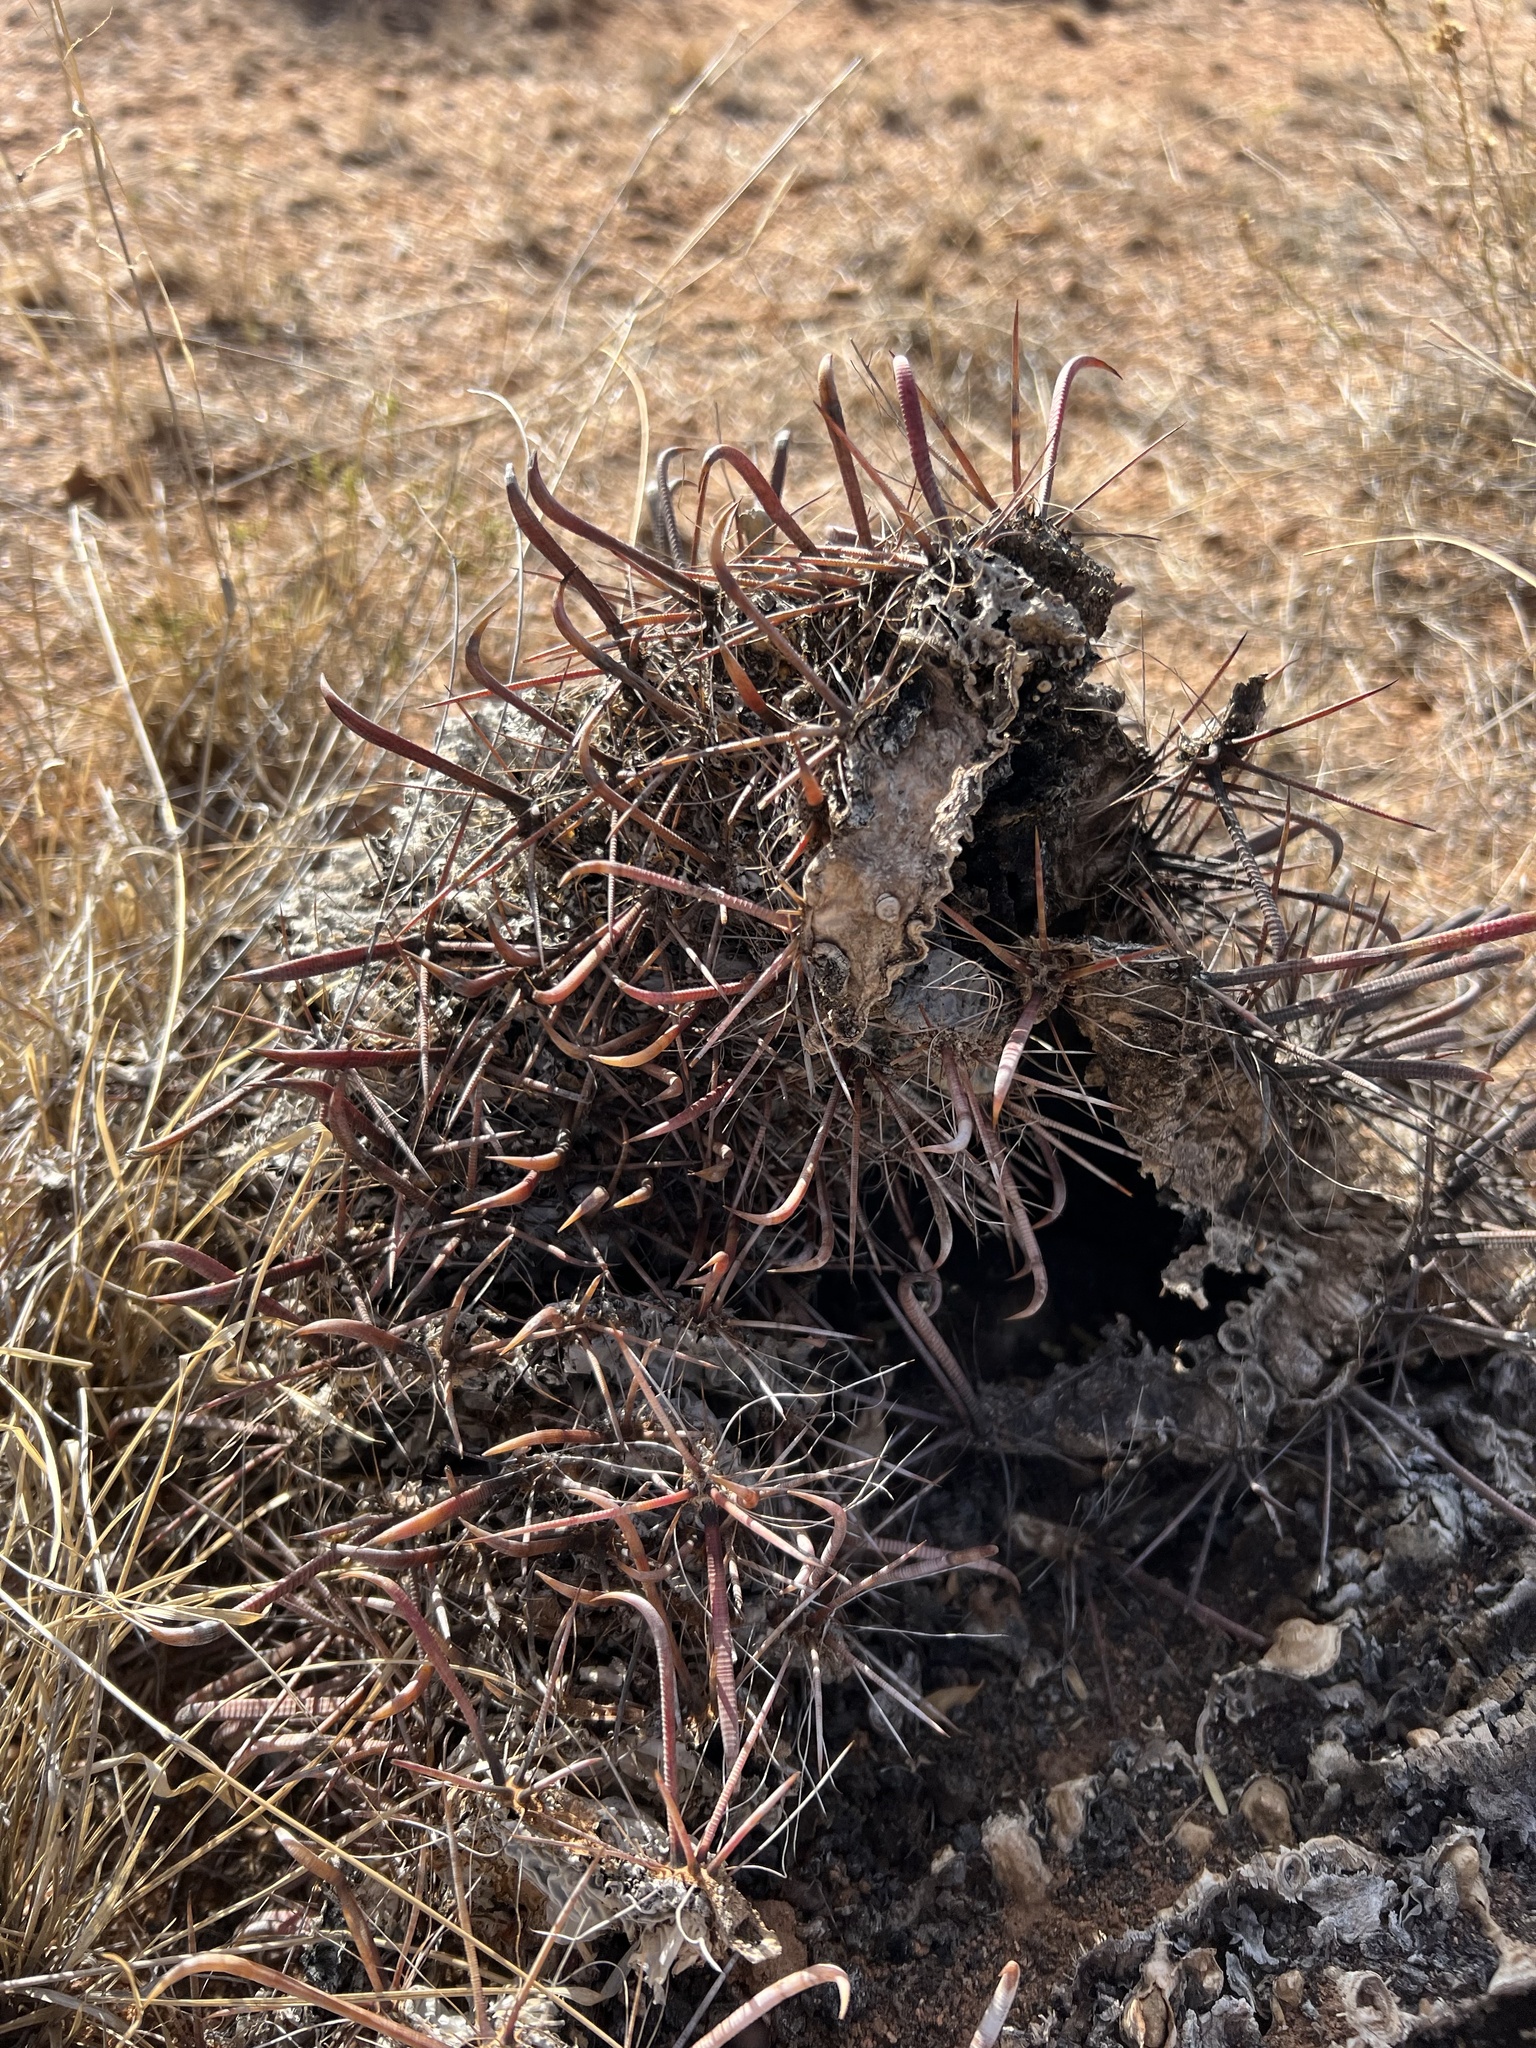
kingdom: Plantae
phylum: Tracheophyta
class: Magnoliopsida
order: Caryophyllales
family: Cactaceae
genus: Ferocactus
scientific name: Ferocactus wislizeni
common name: Candy barrel cactus
